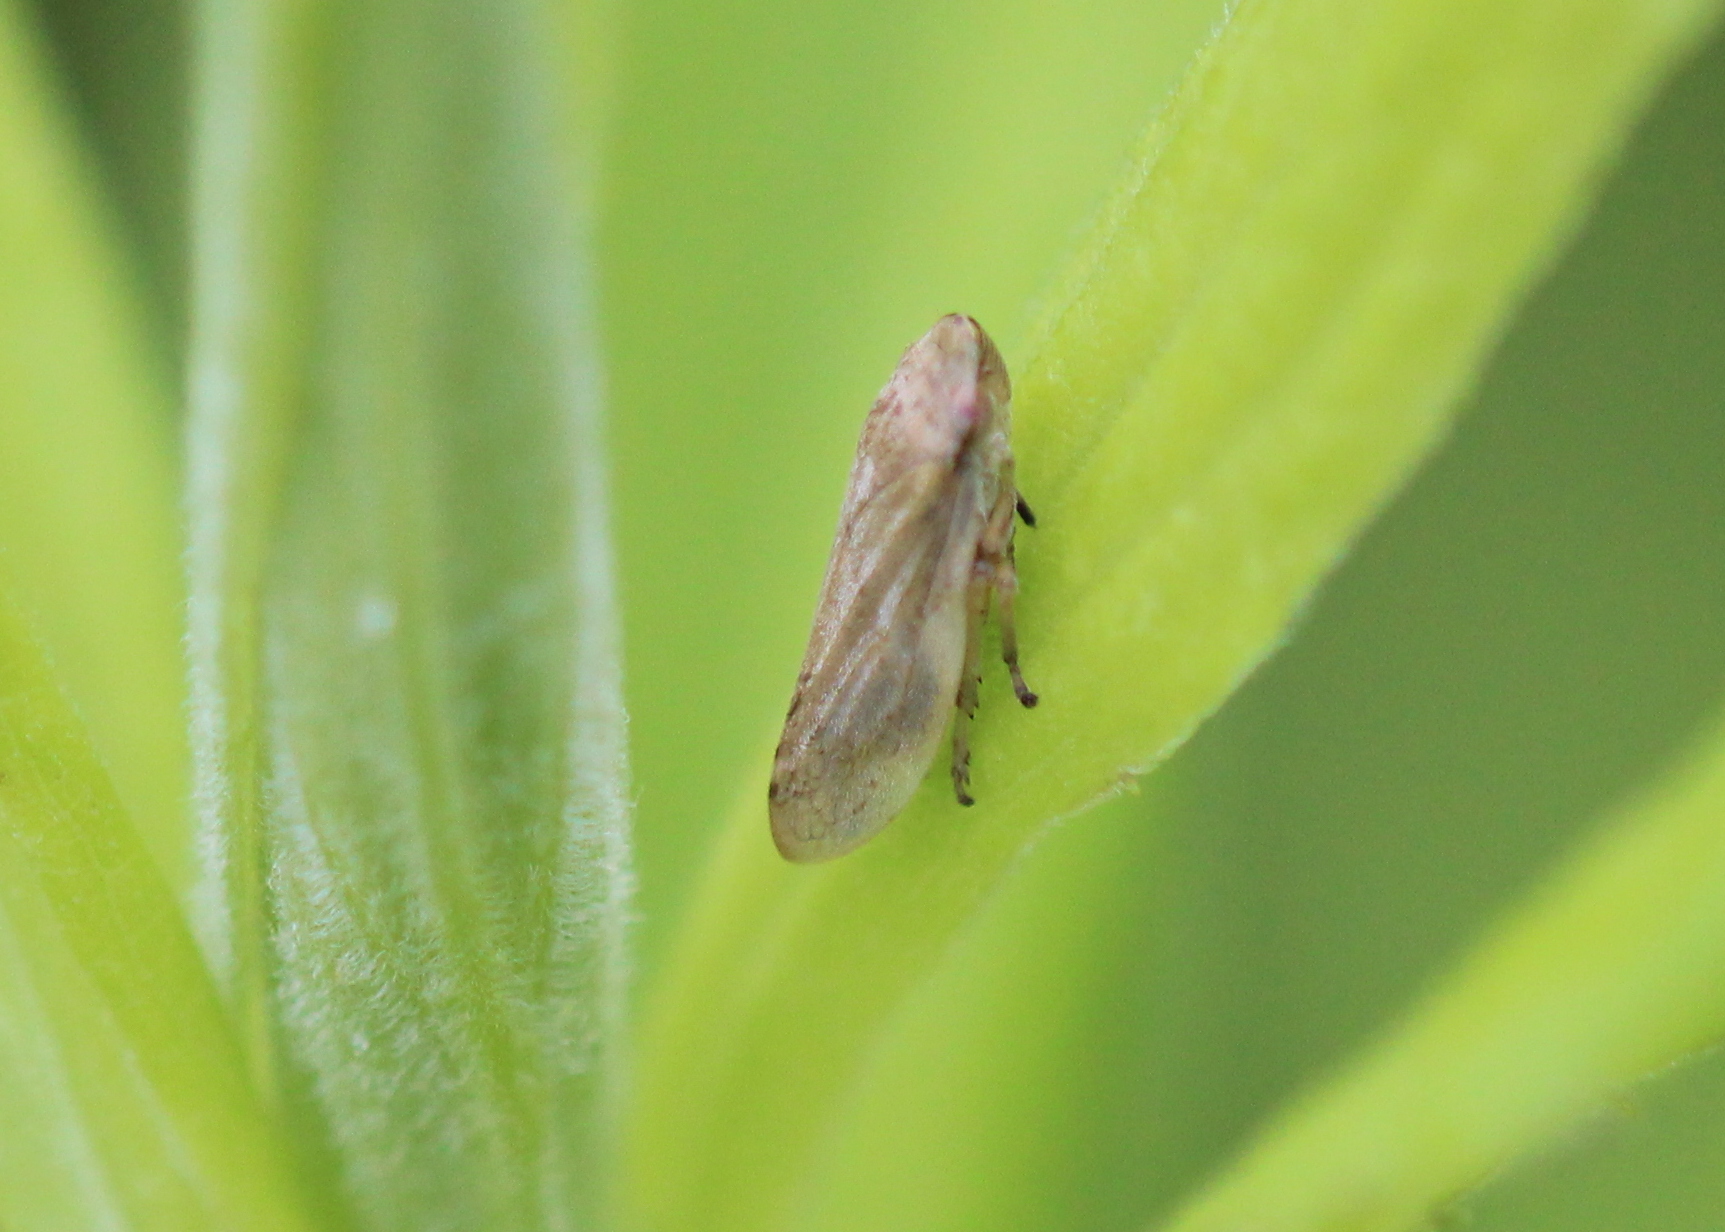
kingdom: Animalia
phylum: Arthropoda
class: Insecta
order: Hemiptera
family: Aphrophoridae
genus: Philaenus
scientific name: Philaenus spumarius
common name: Meadow spittlebug
